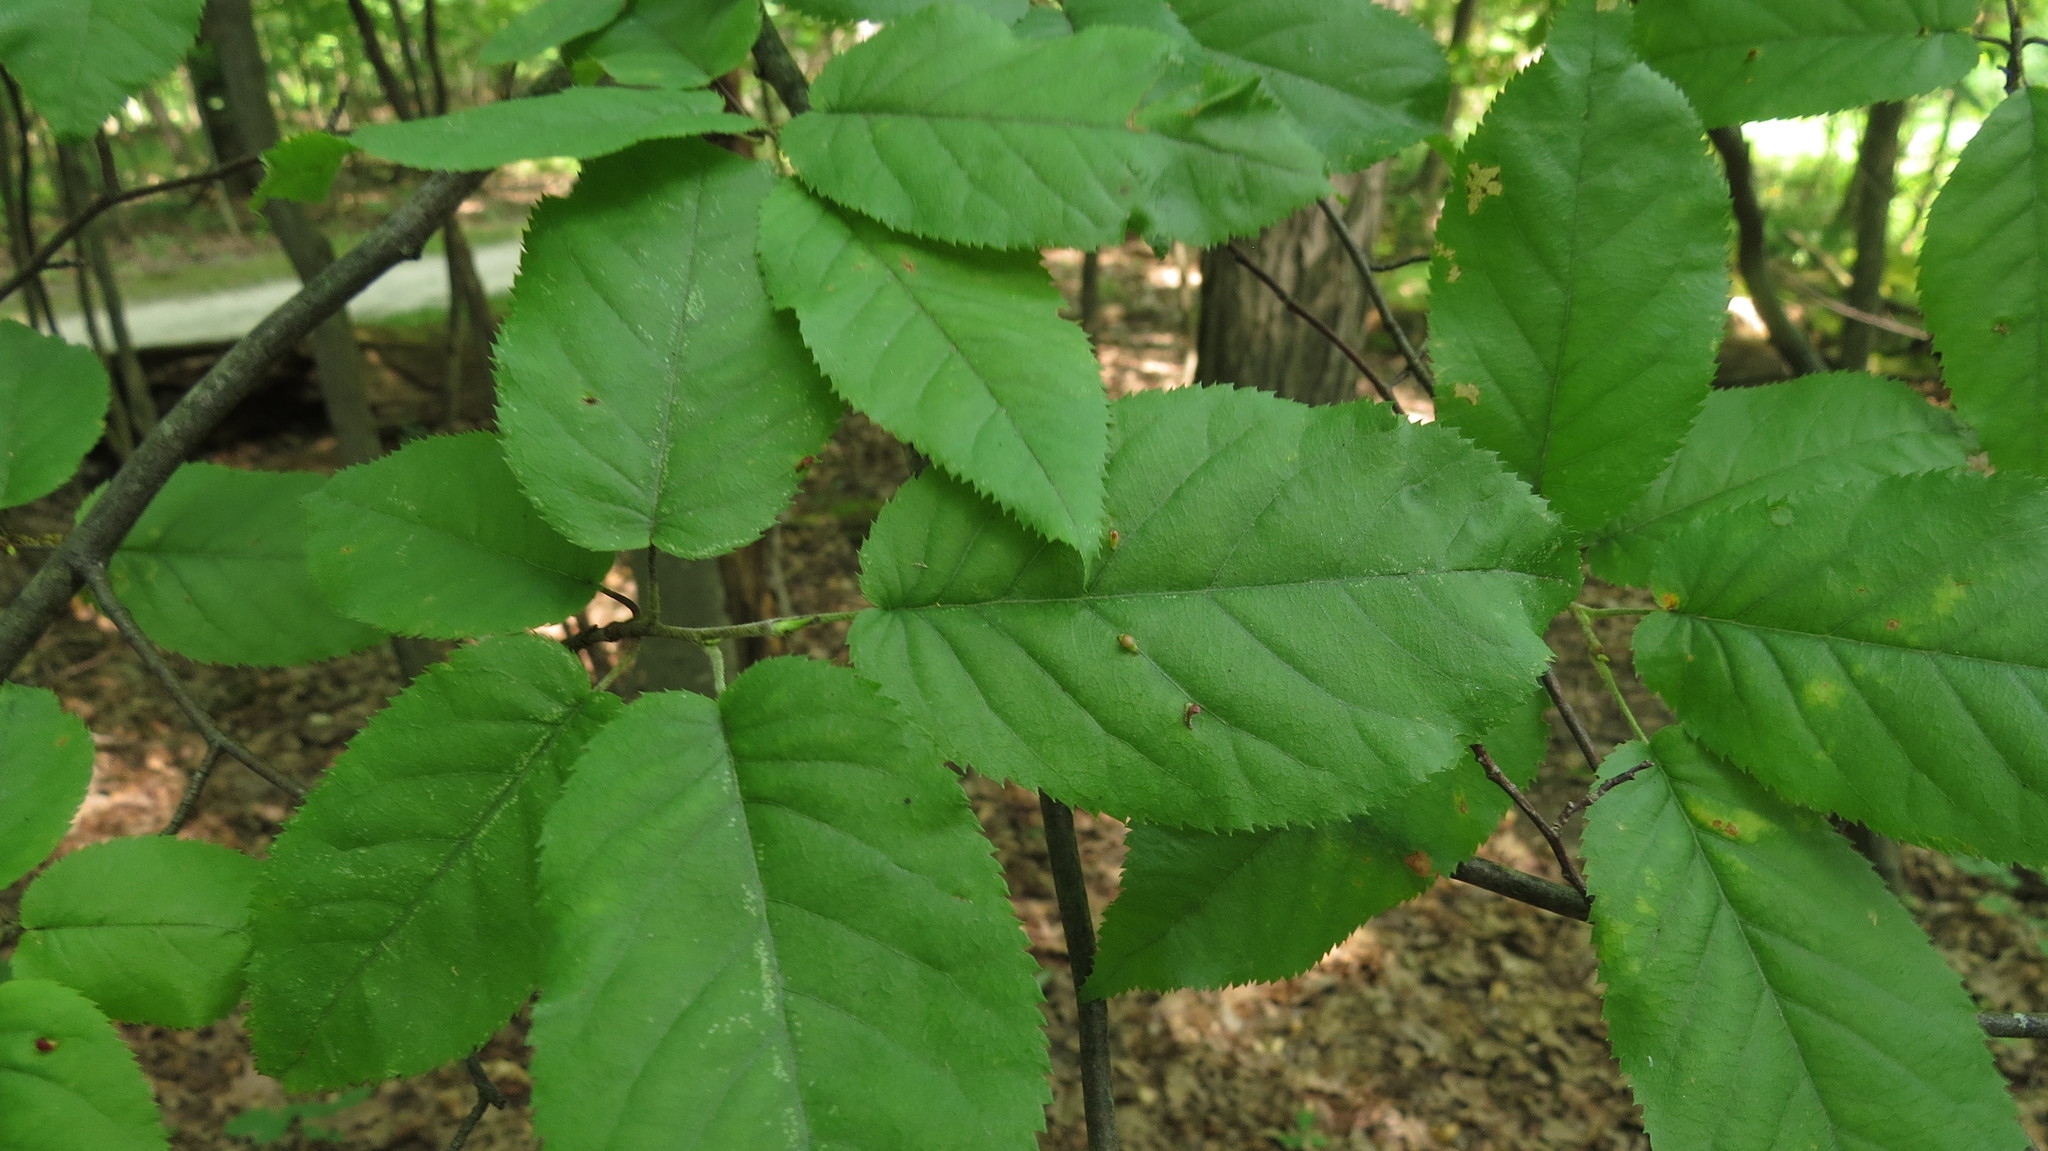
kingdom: Plantae
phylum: Tracheophyta
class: Magnoliopsida
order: Fagales
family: Betulaceae
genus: Ostrya
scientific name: Ostrya virginiana
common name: Ironwood
